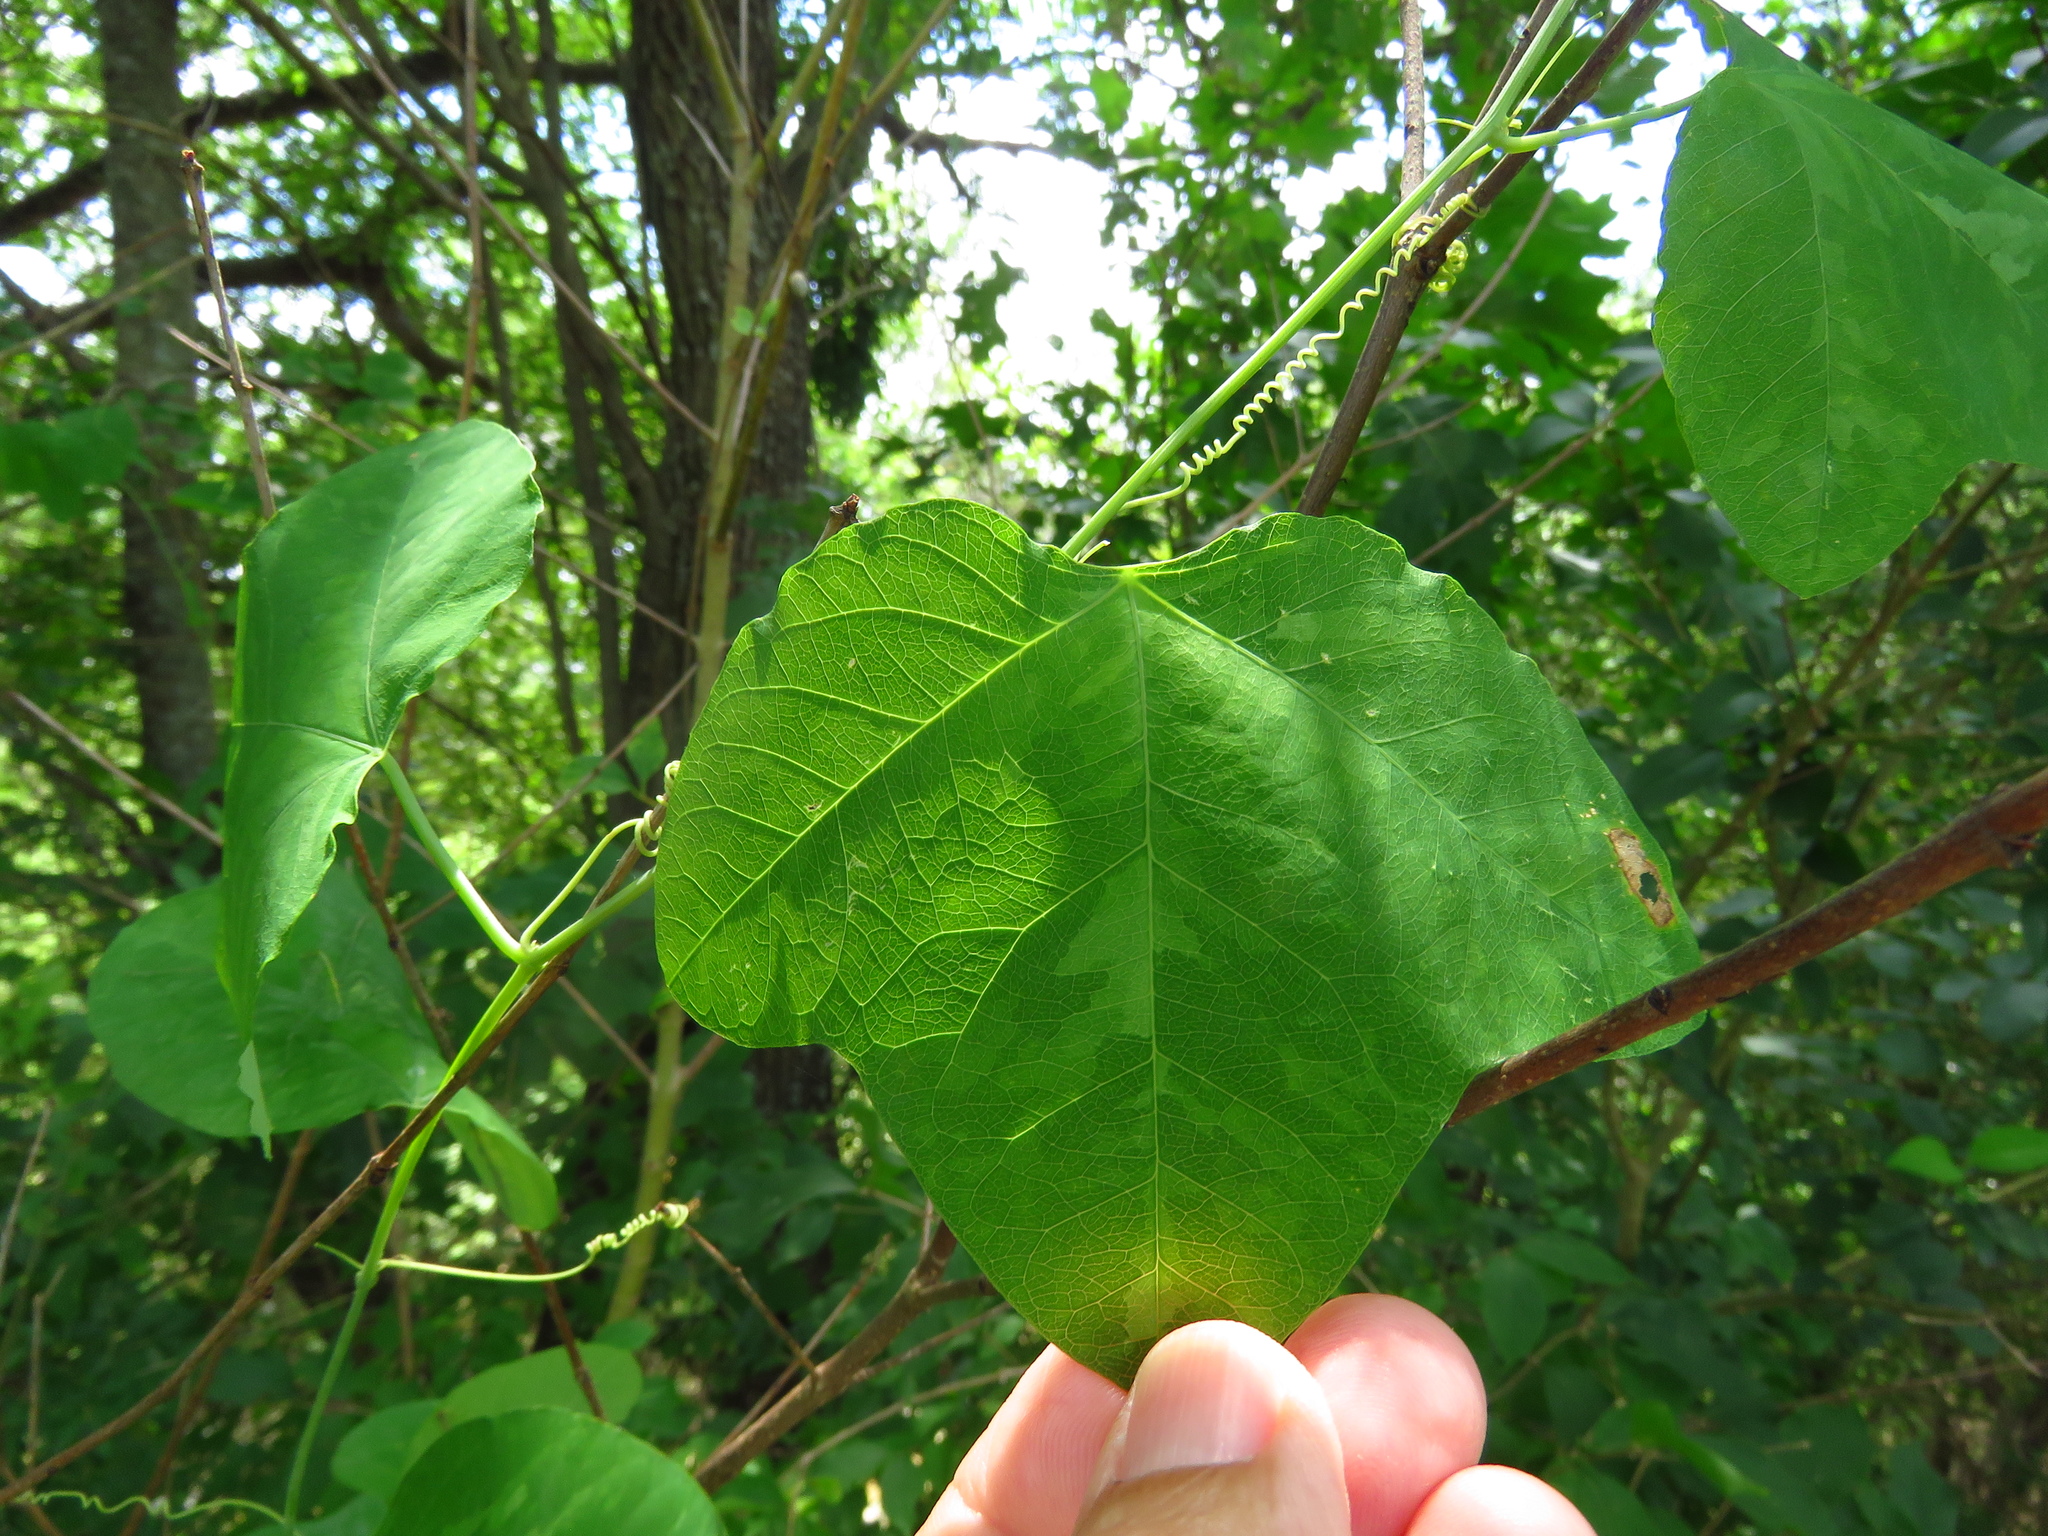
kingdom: Plantae
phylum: Tracheophyta
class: Magnoliopsida
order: Malpighiales
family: Passifloraceae
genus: Passiflora
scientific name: Passiflora lutea
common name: Yellow passionflower
